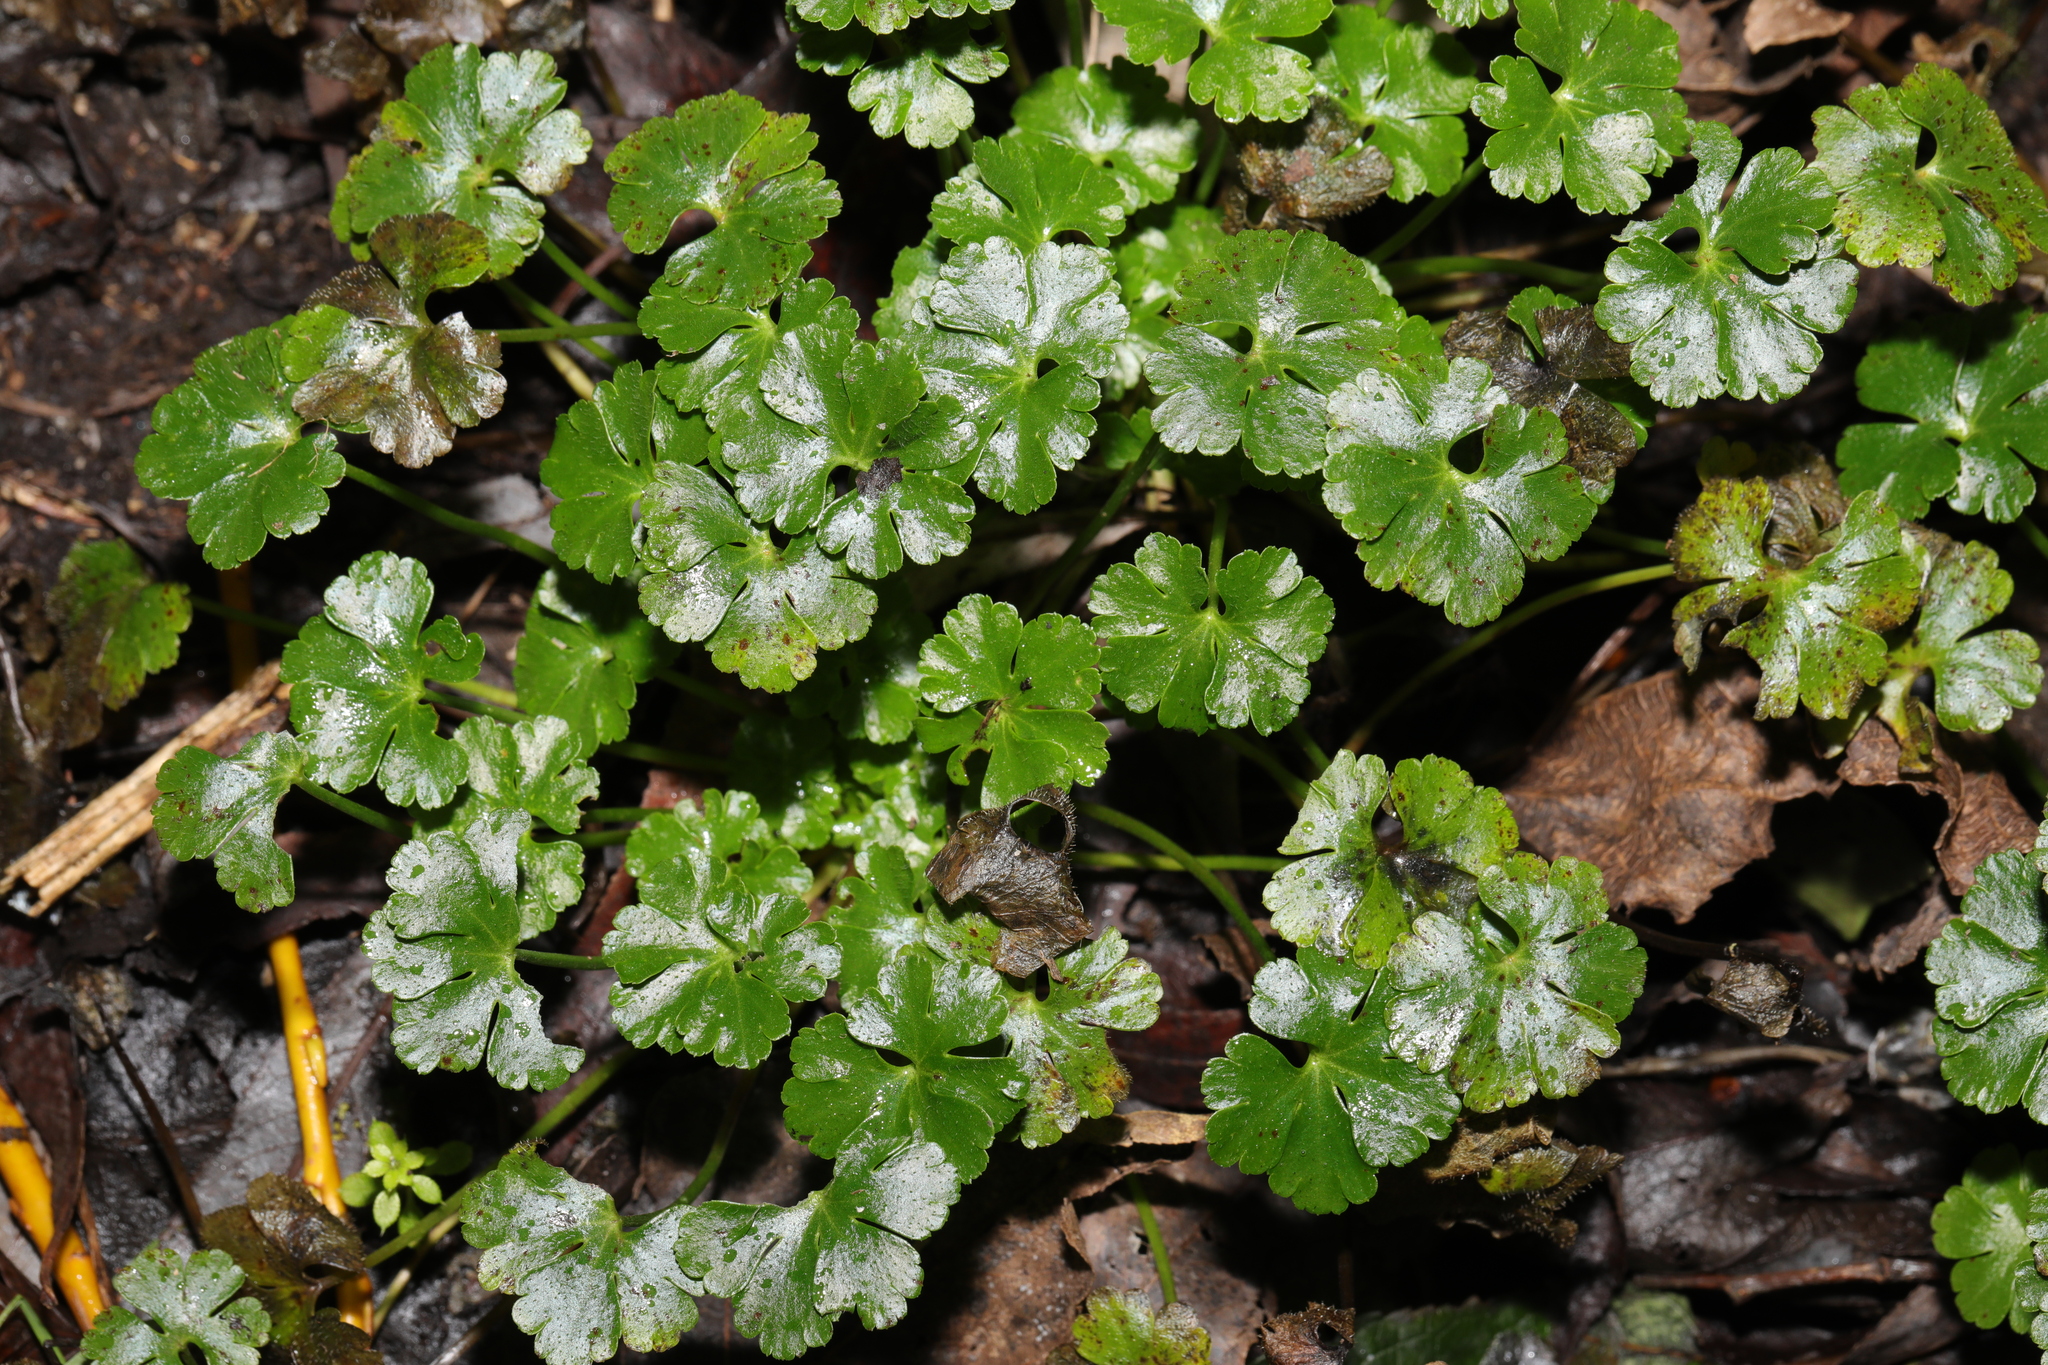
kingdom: Plantae
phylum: Tracheophyta
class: Magnoliopsida
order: Geraniales
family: Geraniaceae
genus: Geranium
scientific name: Geranium lucidum
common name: Shining crane's-bill
